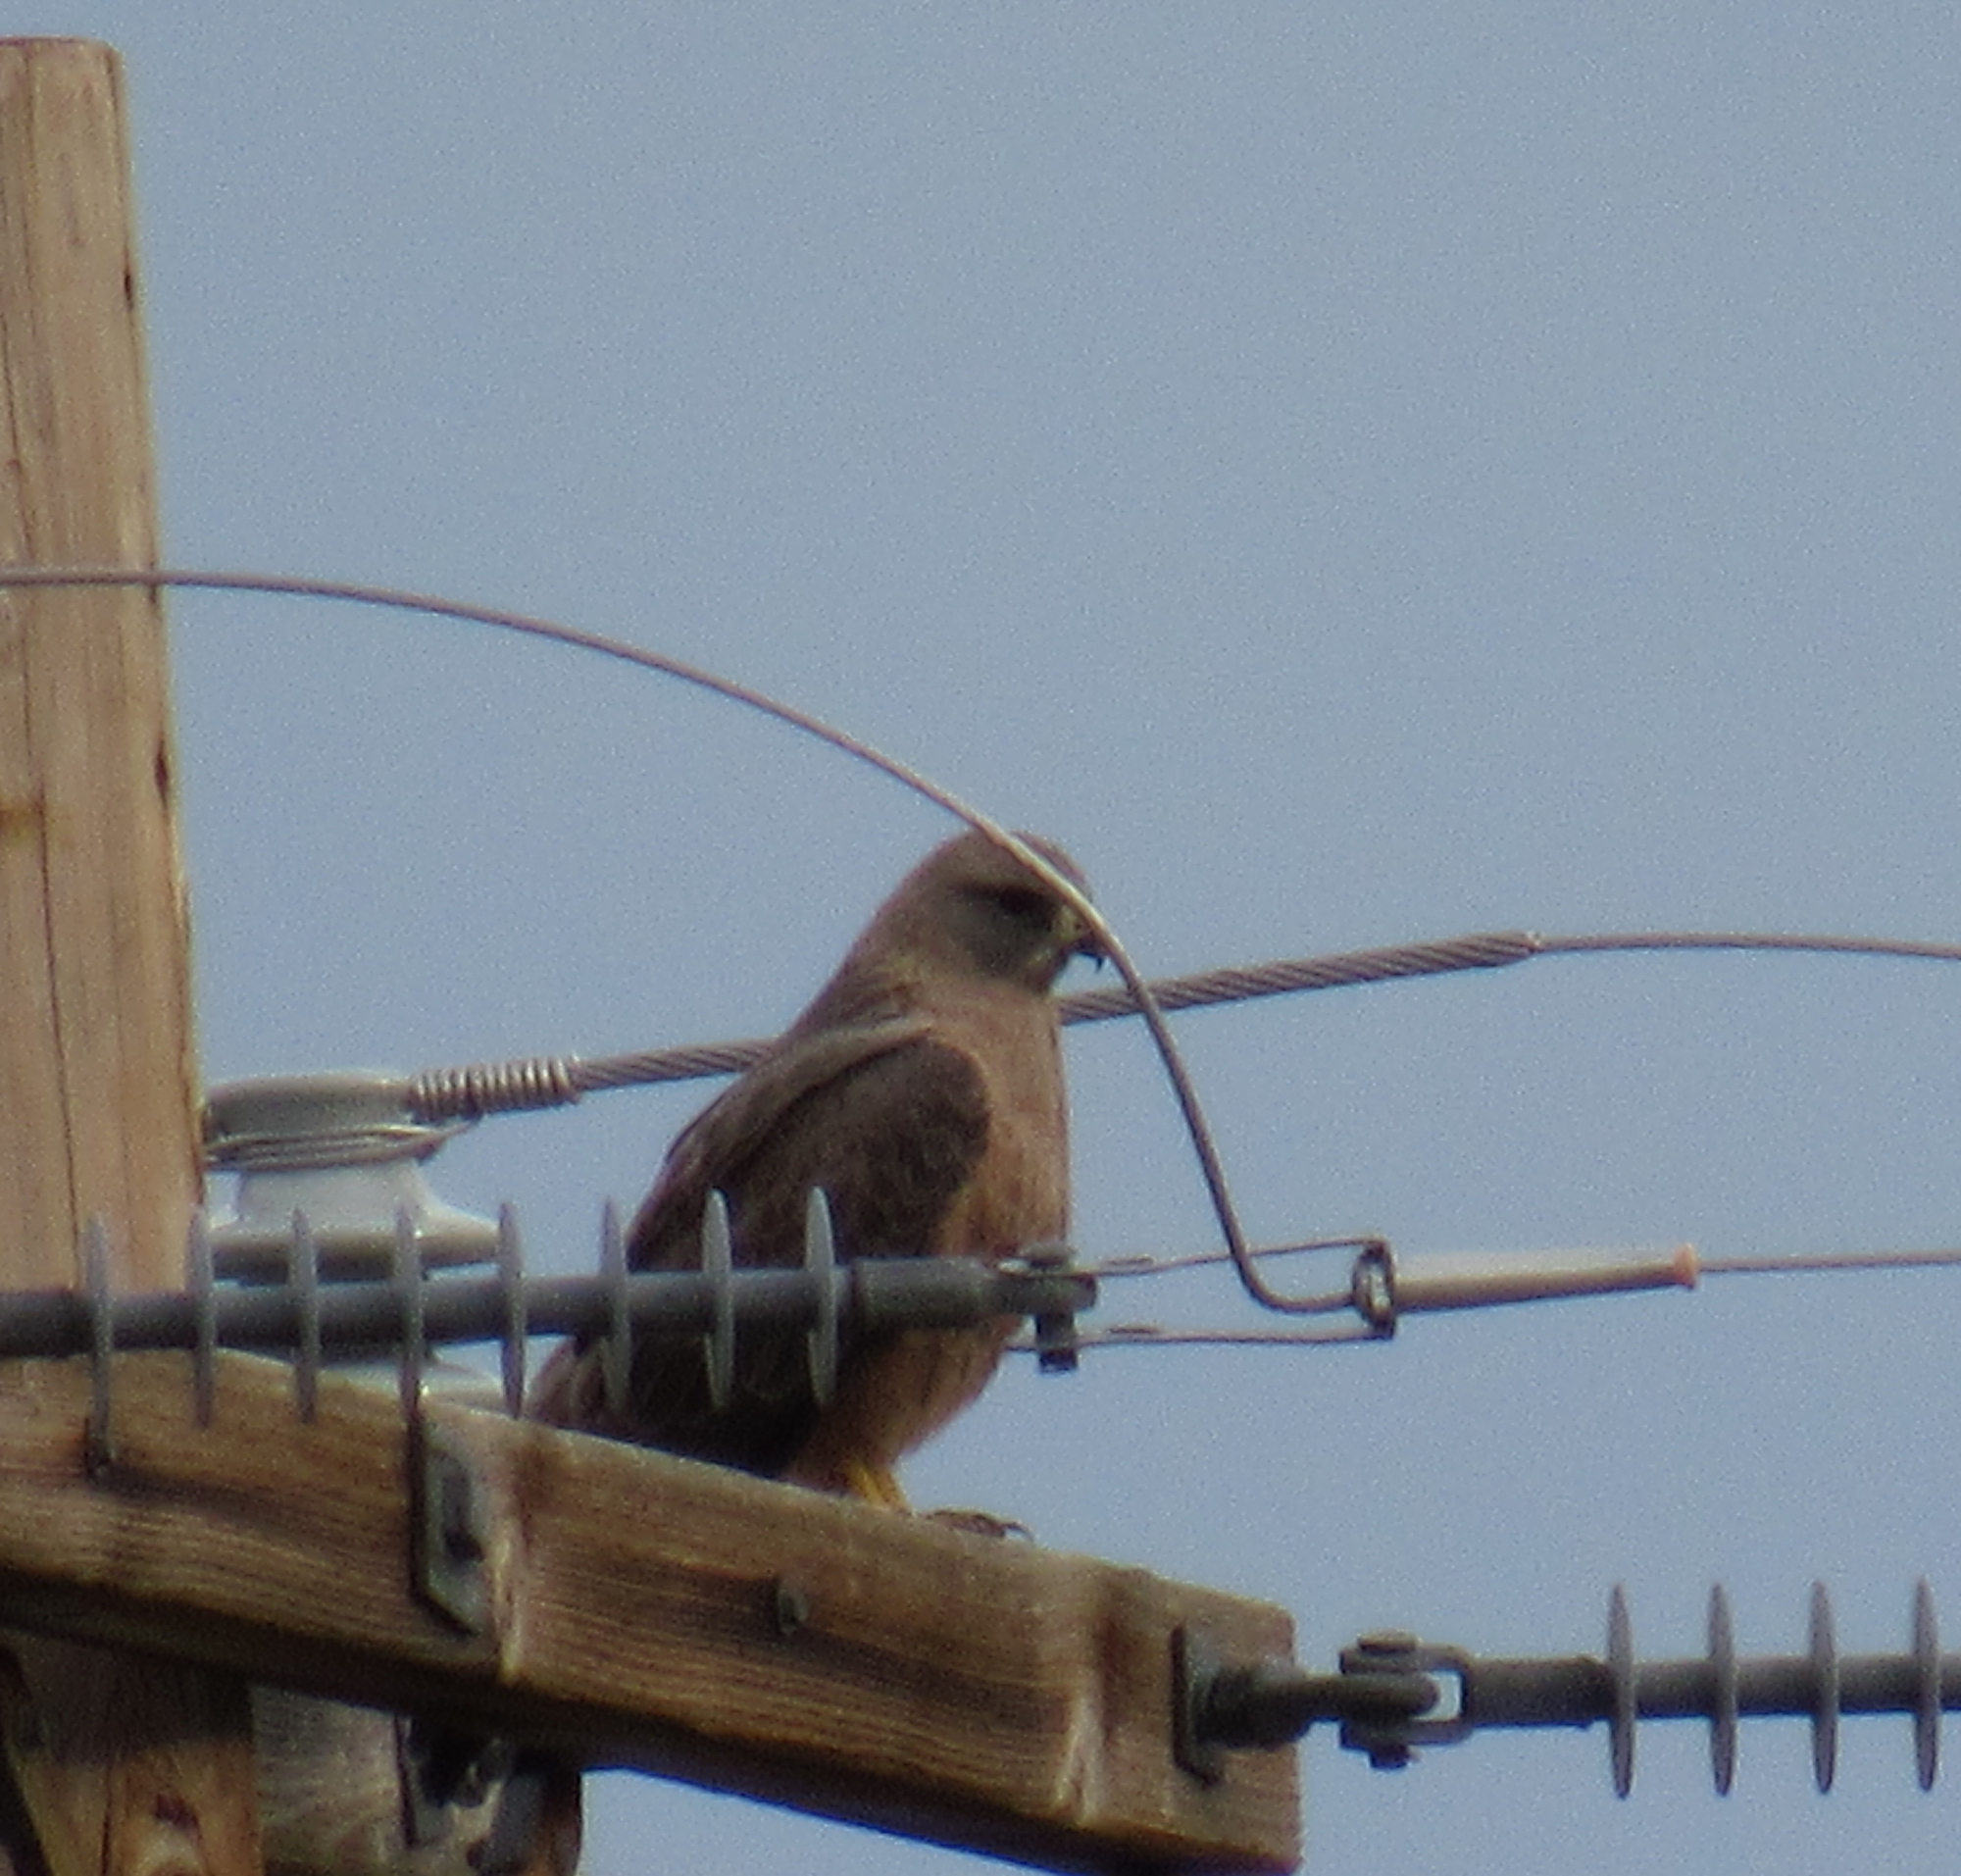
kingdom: Animalia
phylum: Chordata
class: Aves
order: Accipitriformes
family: Accipitridae
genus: Buteo
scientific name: Buteo swainsoni
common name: Swainson's hawk
